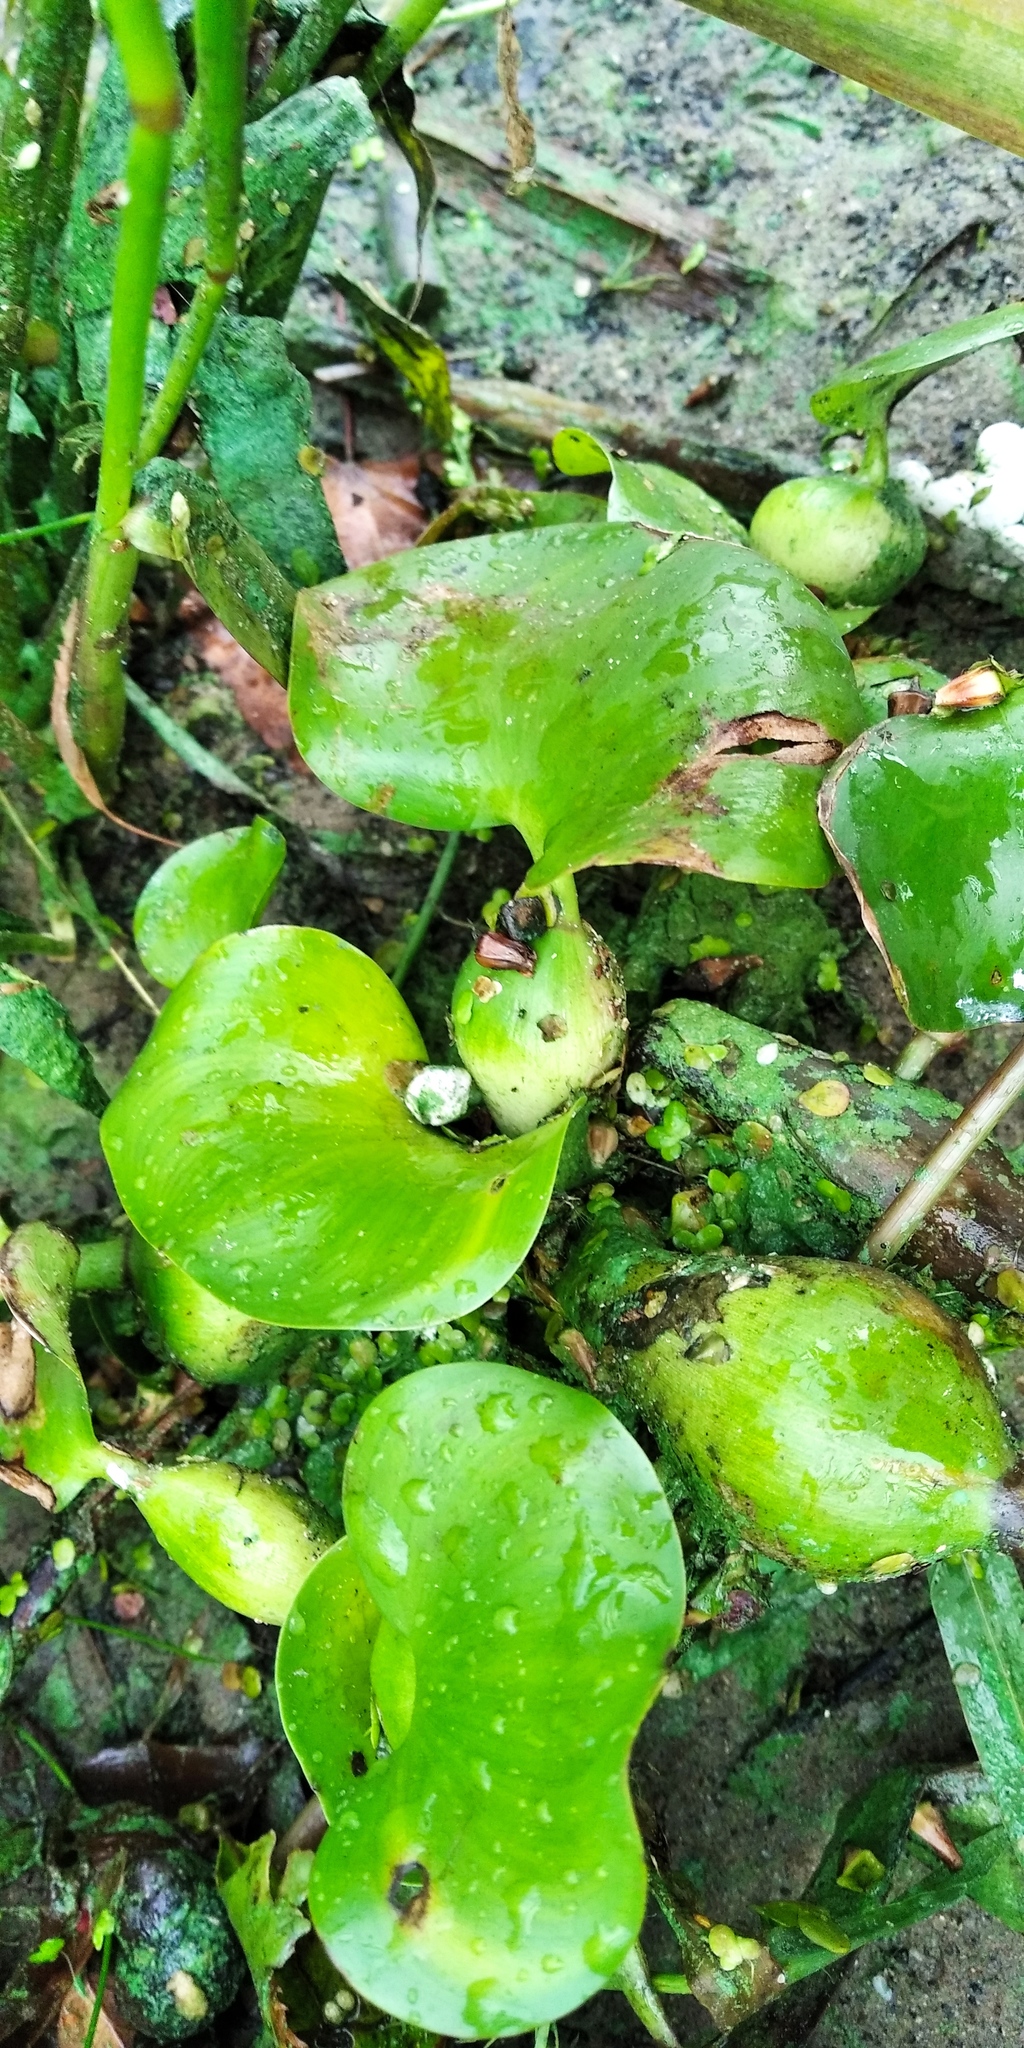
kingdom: Plantae
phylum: Tracheophyta
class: Liliopsida
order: Commelinales
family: Pontederiaceae
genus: Pontederia
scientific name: Pontederia crassipes
